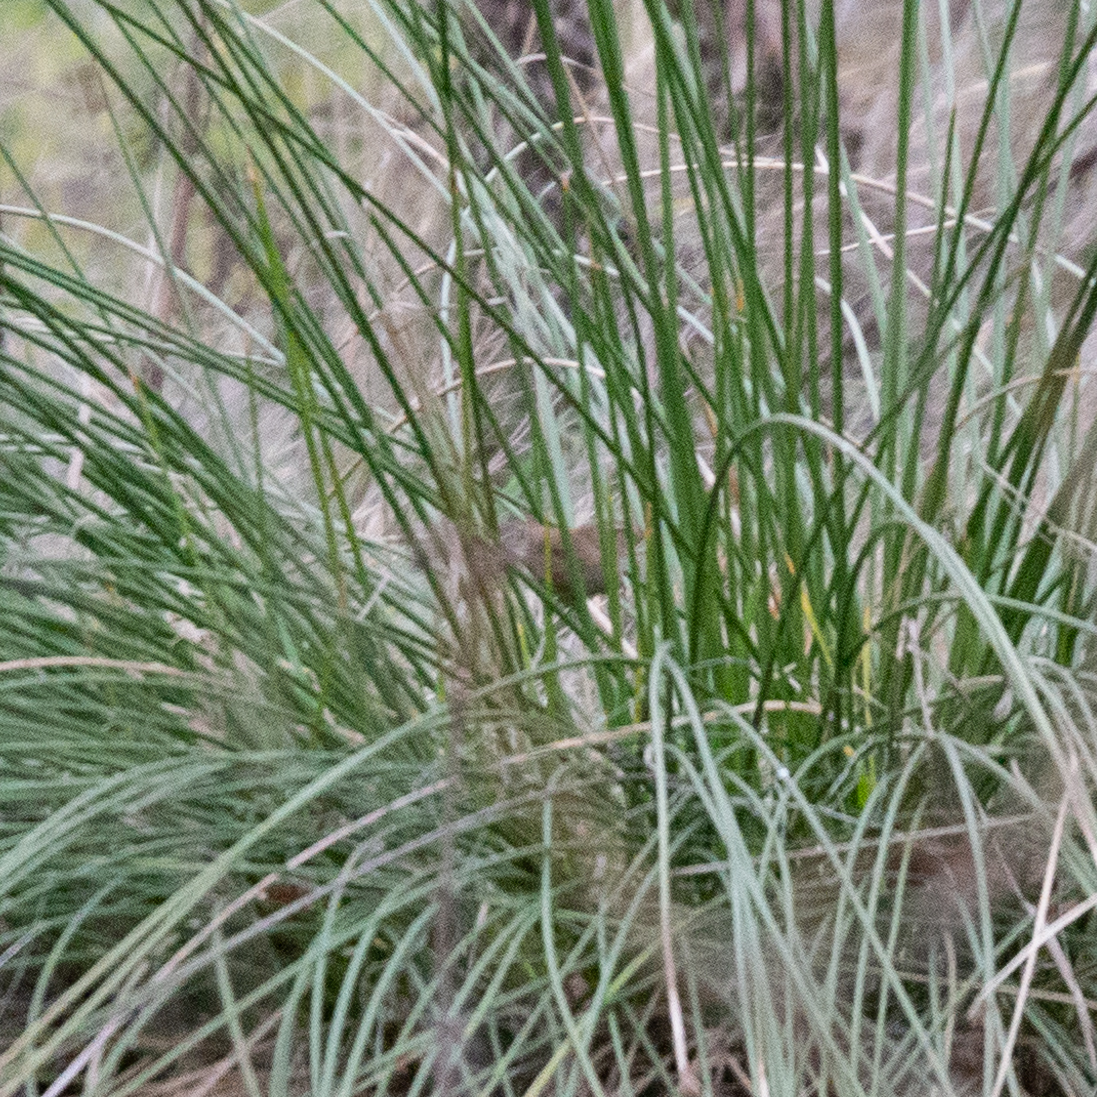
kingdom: Animalia
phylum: Chordata
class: Aves
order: Passeriformes
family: Troglodytidae
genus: Troglodytes
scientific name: Troglodytes troglodytes
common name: Eurasian wren
